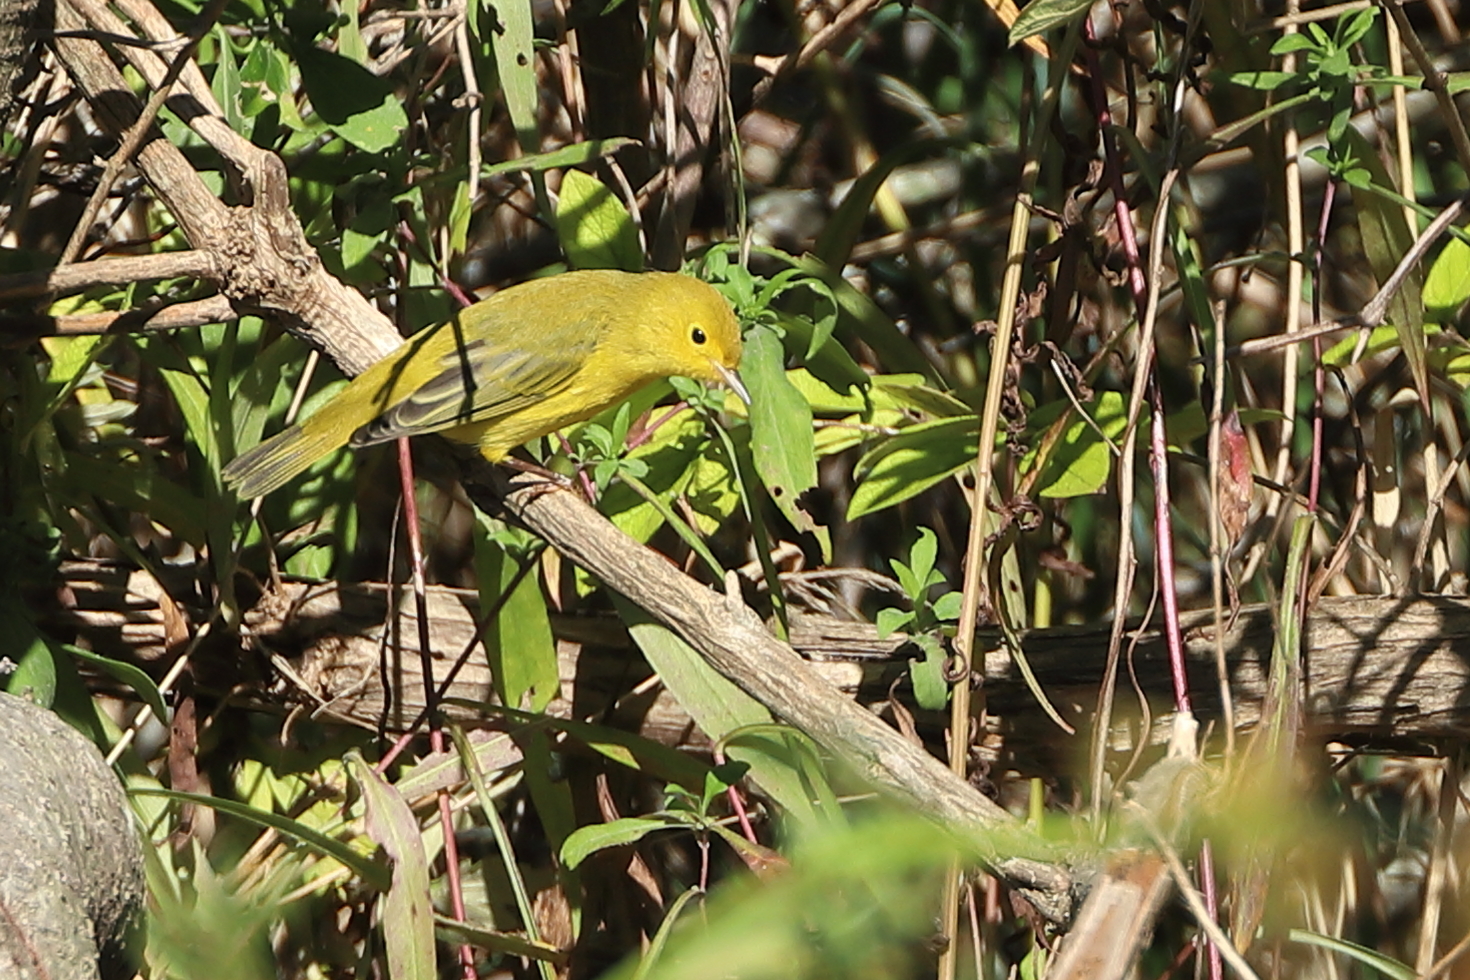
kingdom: Animalia
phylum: Chordata
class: Aves
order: Passeriformes
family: Parulidae
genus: Setophaga
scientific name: Setophaga petechia
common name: Yellow warbler
